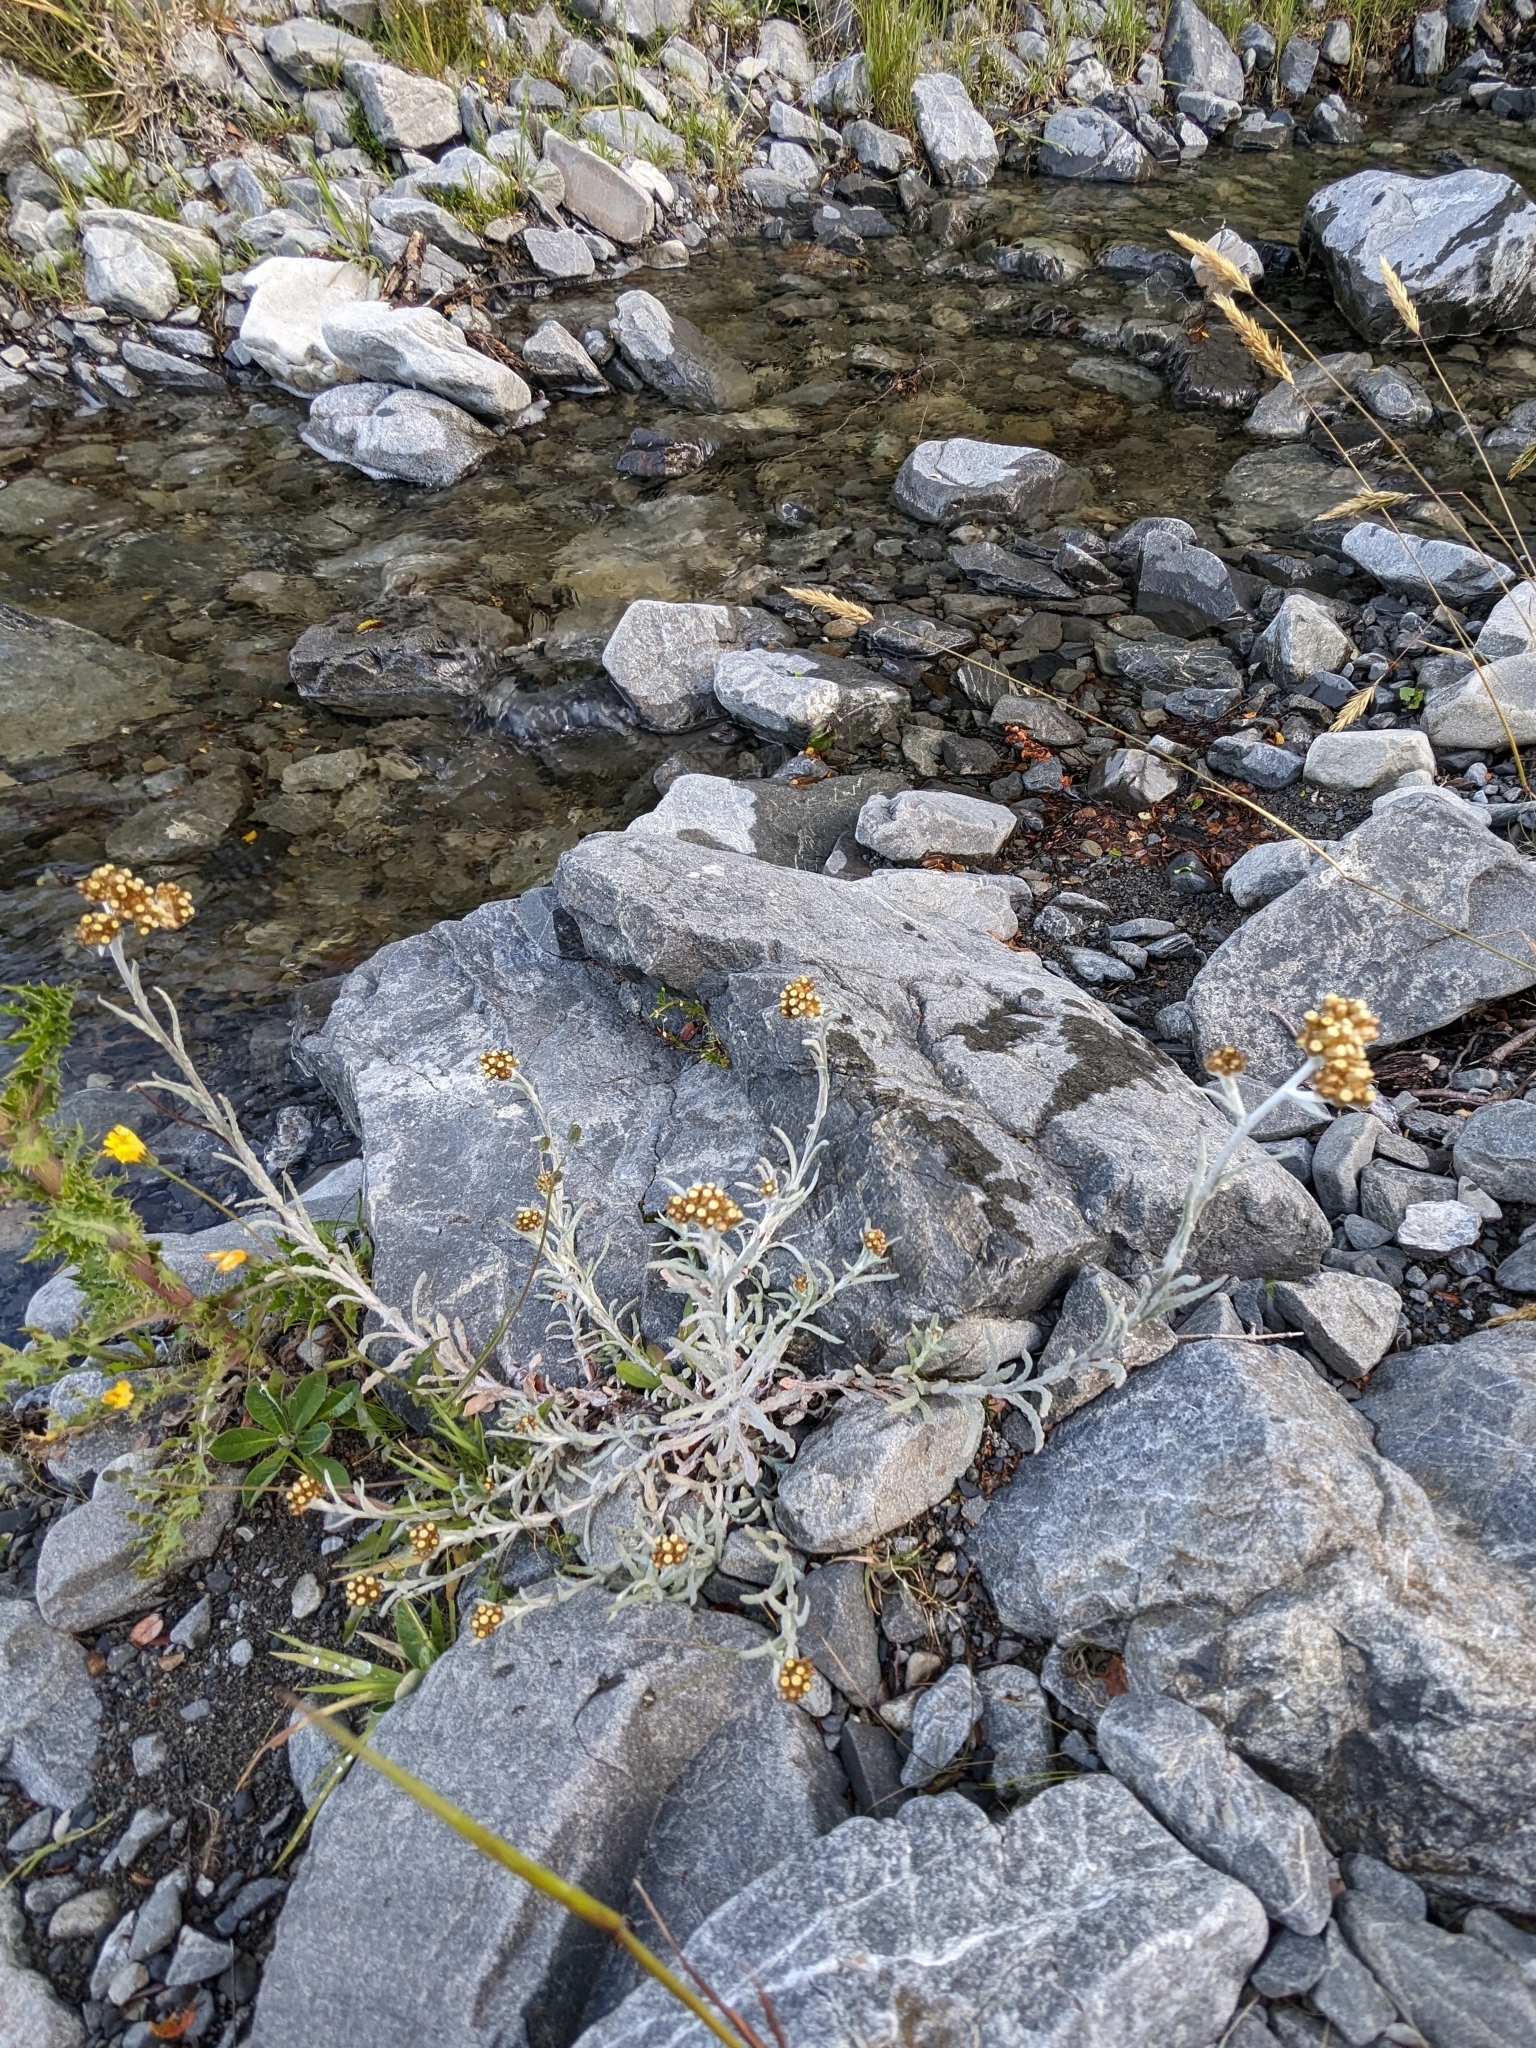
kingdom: Plantae
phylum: Tracheophyta
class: Magnoliopsida
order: Asterales
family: Asteraceae
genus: Pseudognaphalium
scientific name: Pseudognaphalium
